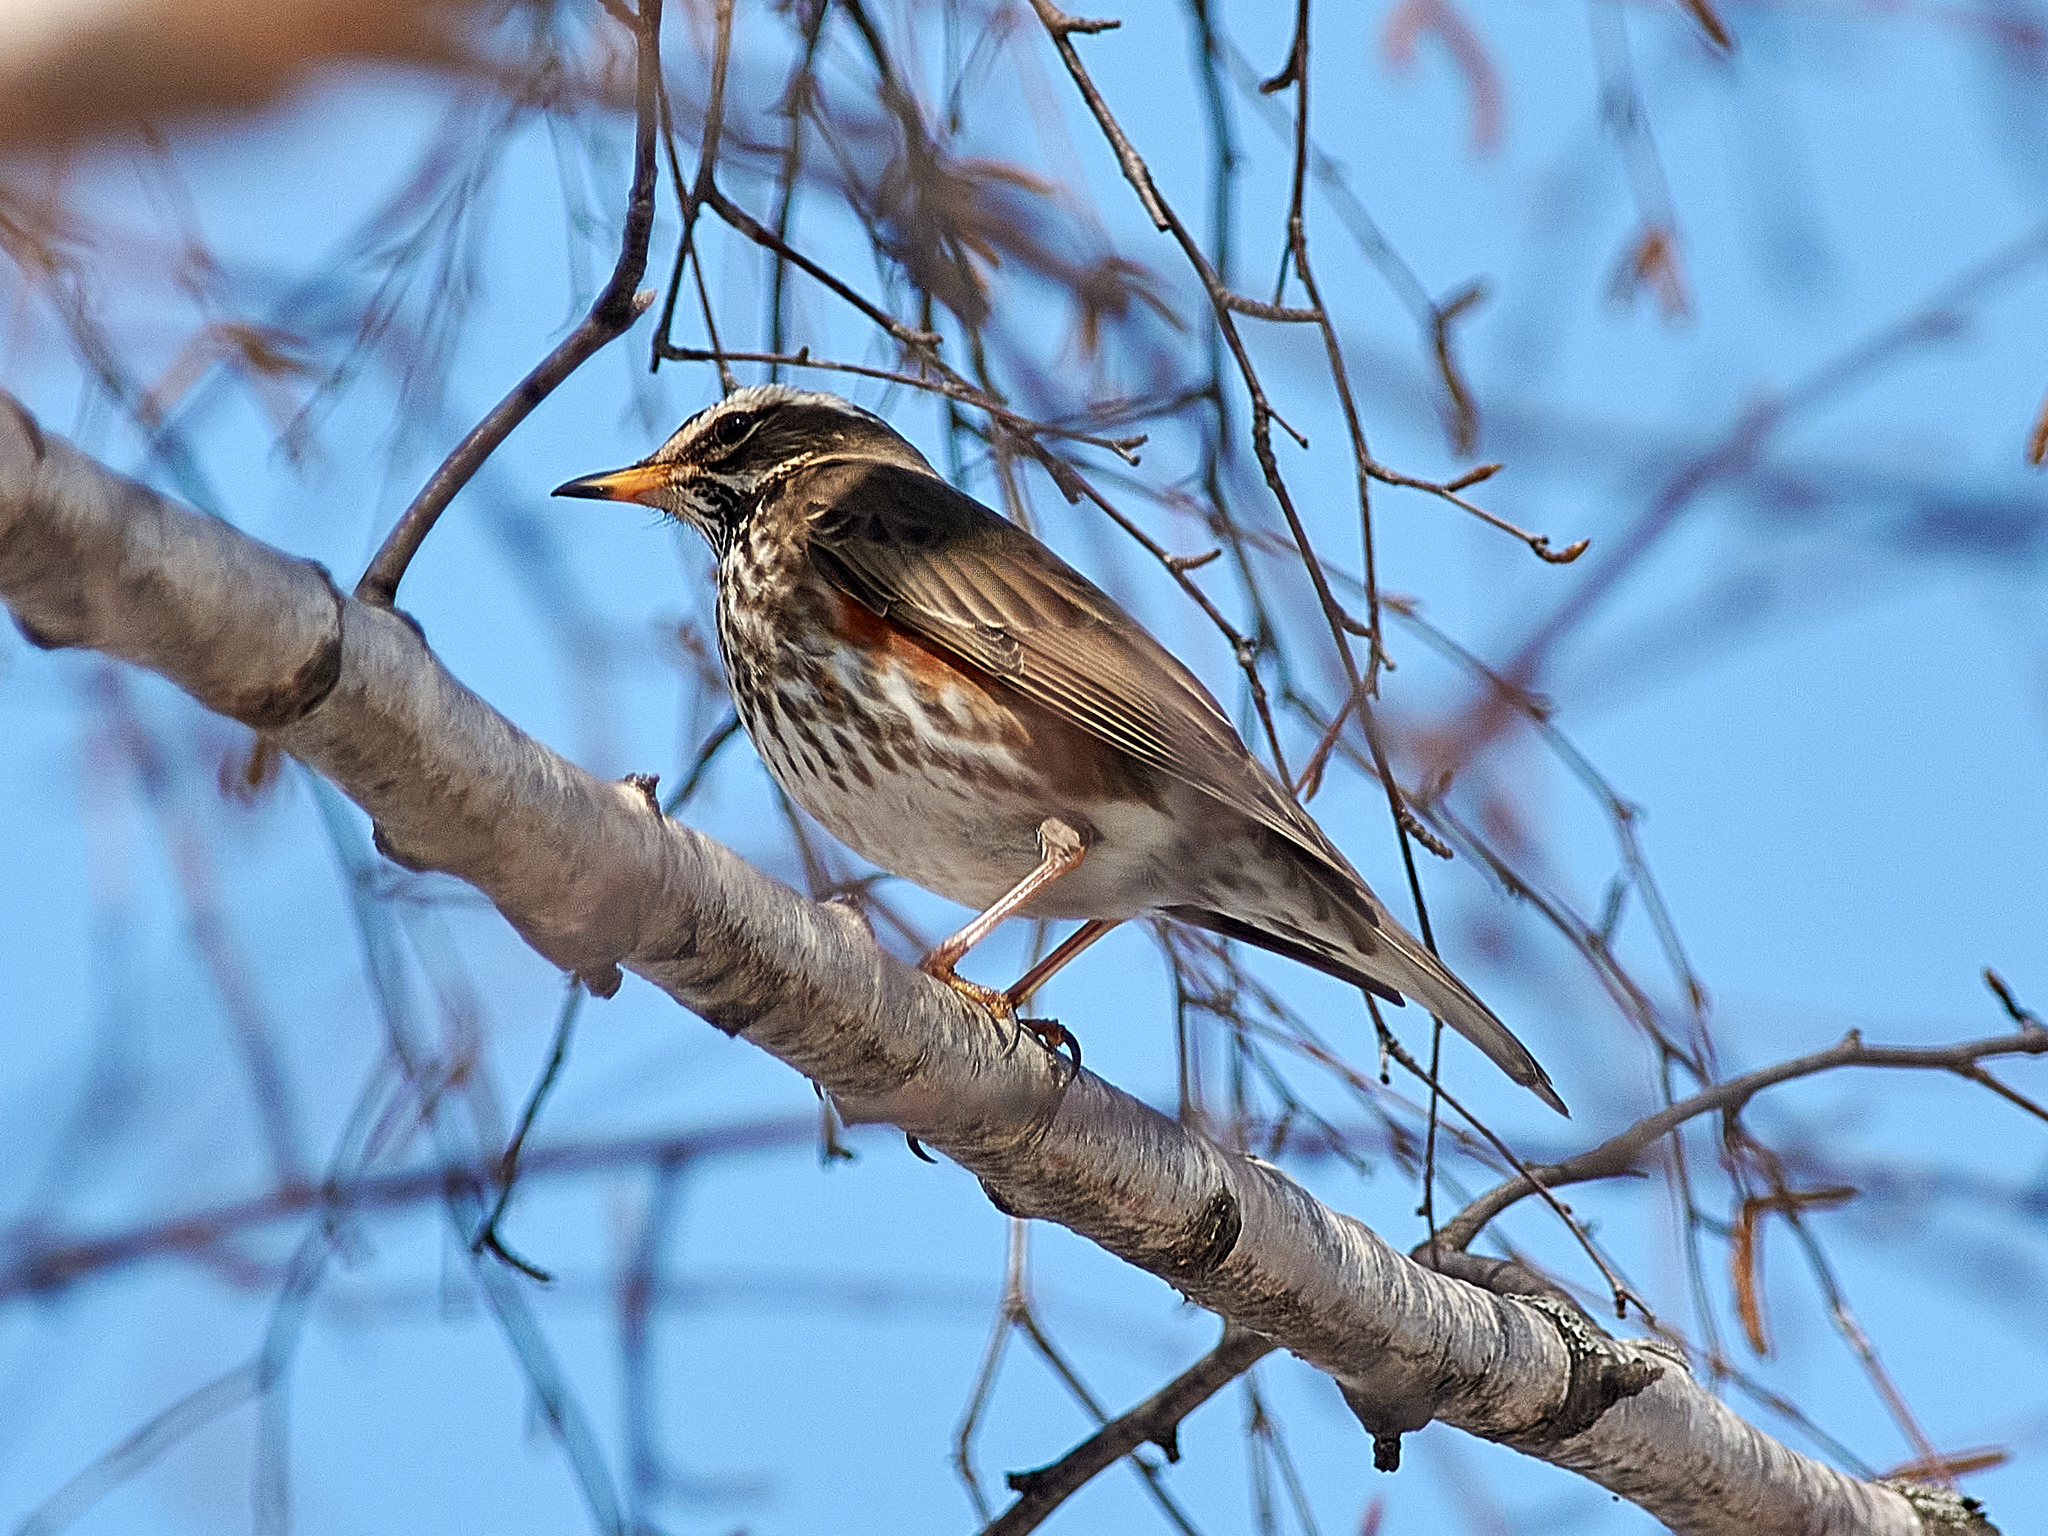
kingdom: Animalia
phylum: Chordata
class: Aves
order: Passeriformes
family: Turdidae
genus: Turdus
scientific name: Turdus iliacus
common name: Redwing
